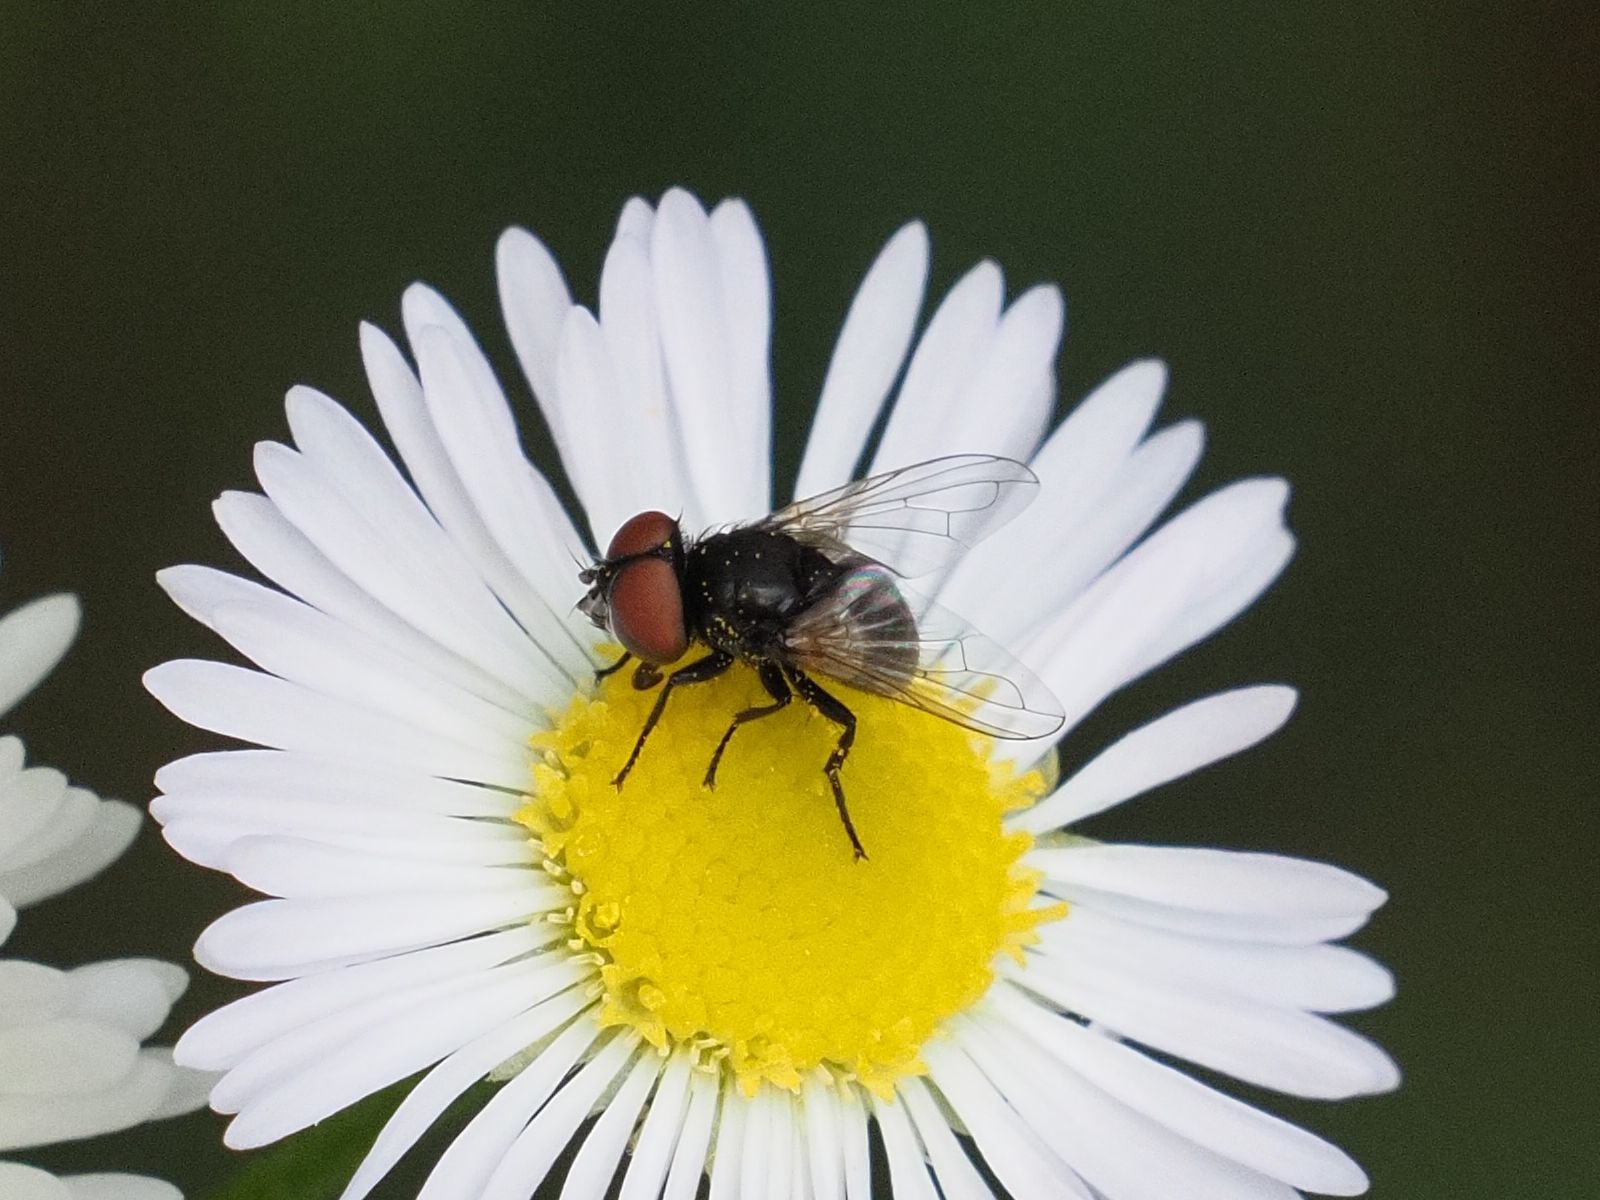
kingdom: Animalia
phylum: Arthropoda
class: Insecta
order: Diptera
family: Tachinidae
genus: Phasia
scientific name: Phasia pusilla
